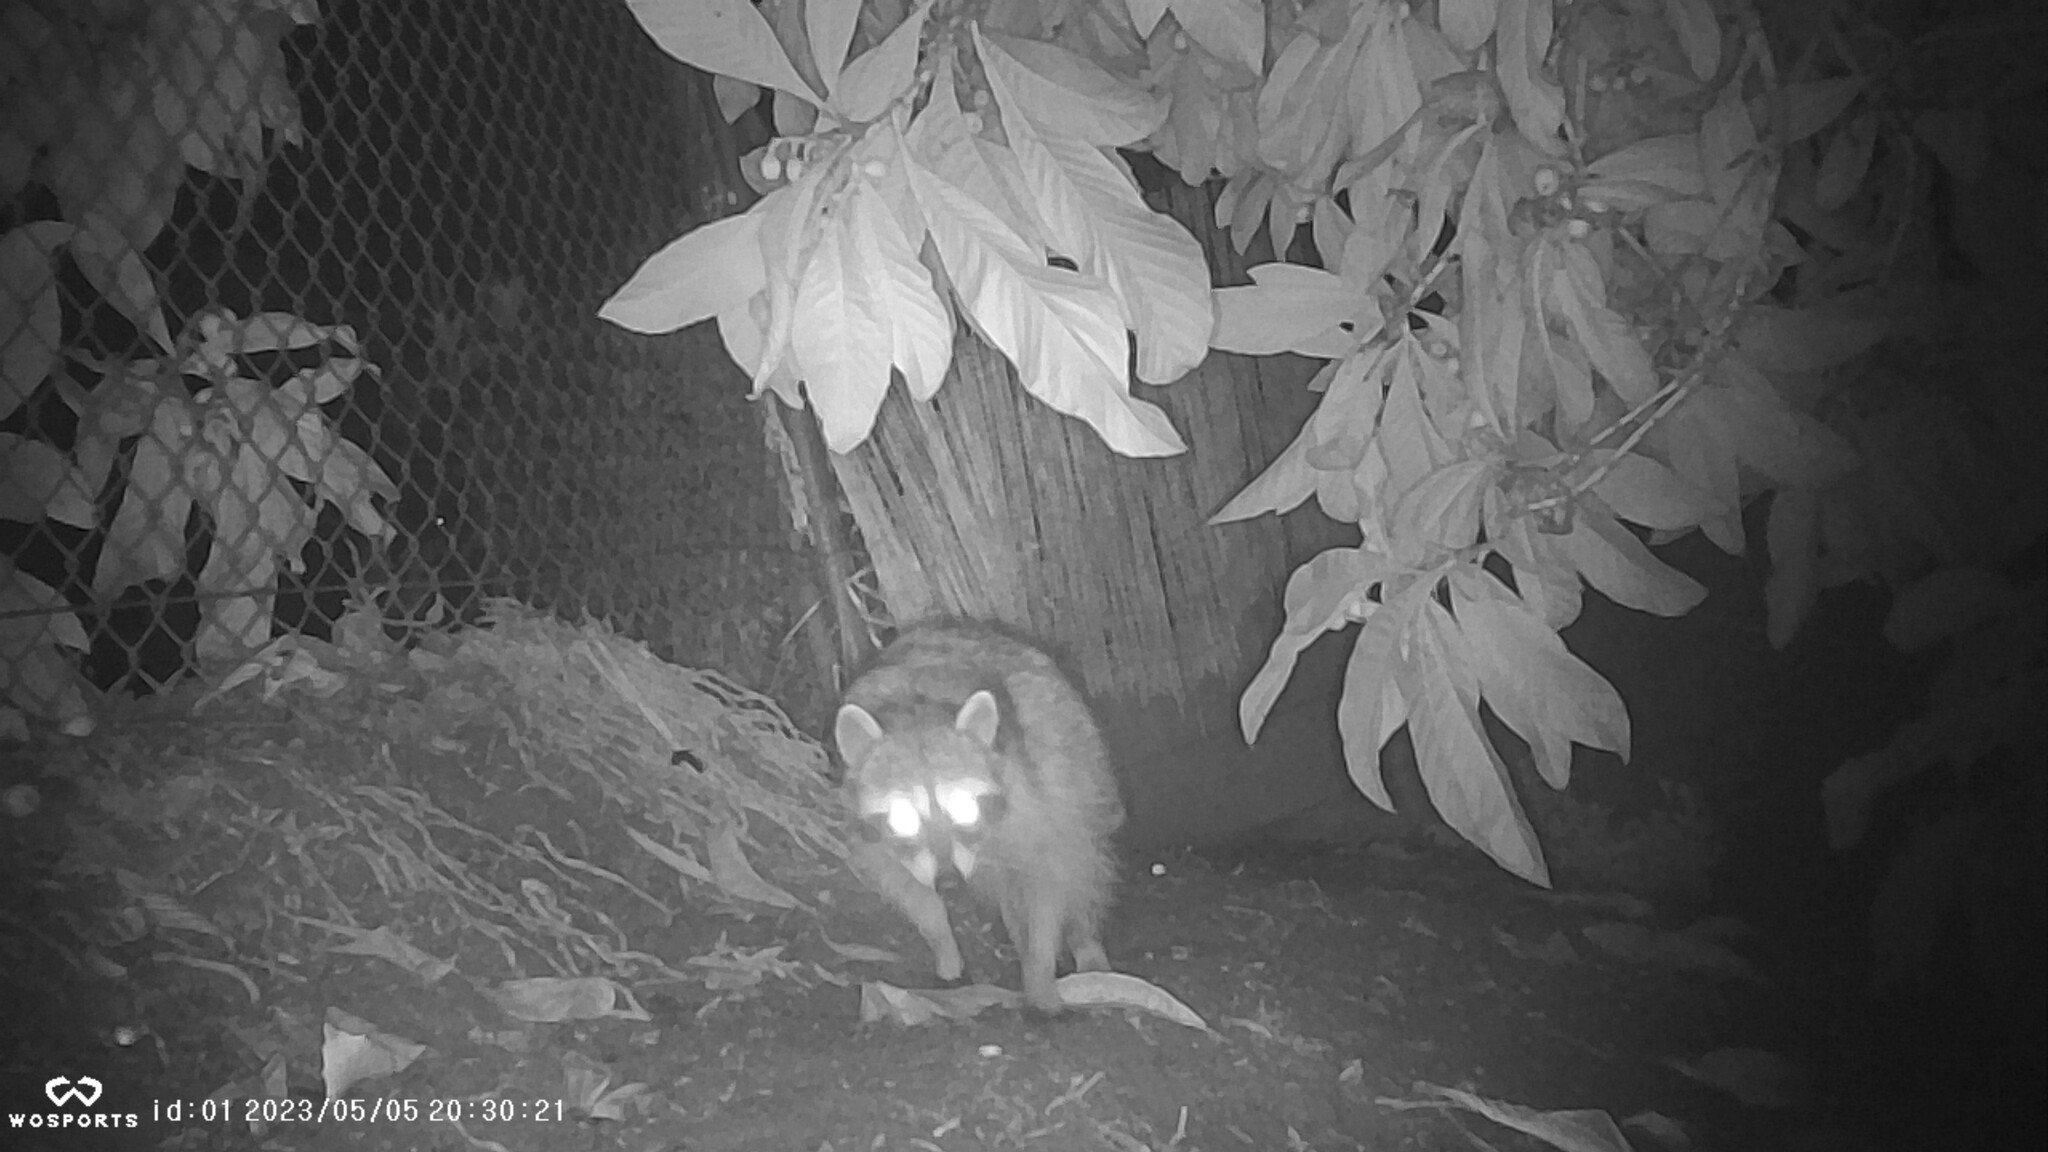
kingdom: Animalia
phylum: Chordata
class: Mammalia
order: Carnivora
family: Procyonidae
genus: Procyon
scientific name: Procyon lotor
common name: Raccoon
